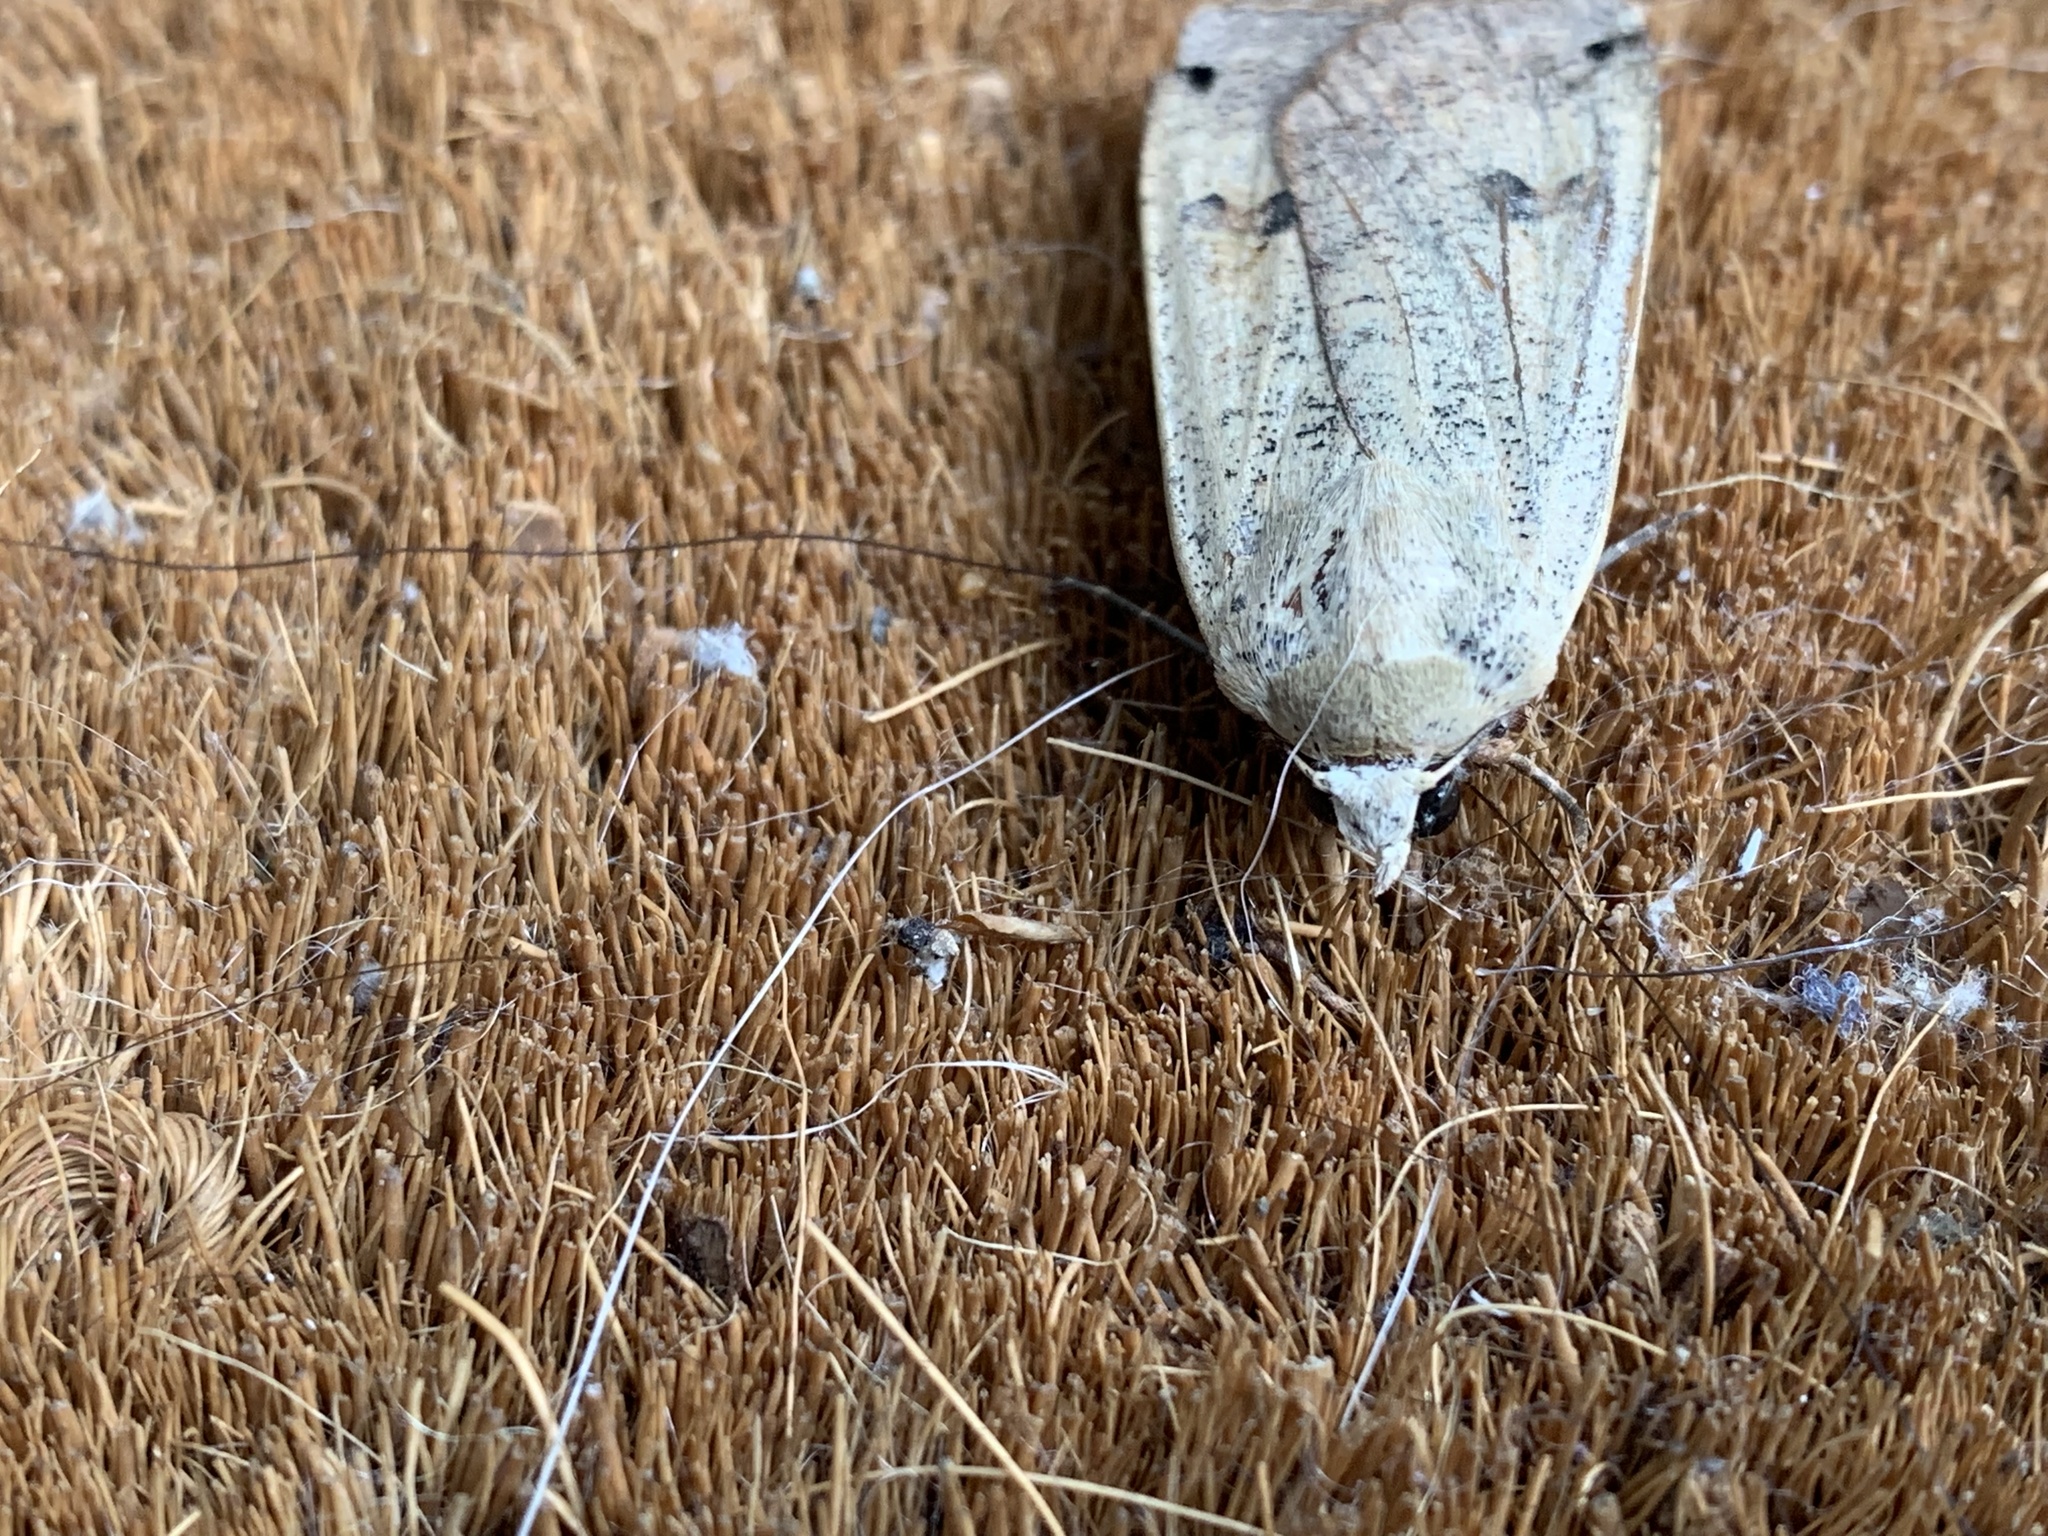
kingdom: Animalia
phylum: Arthropoda
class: Insecta
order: Lepidoptera
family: Noctuidae
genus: Noctua
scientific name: Noctua pronuba
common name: Large yellow underwing
